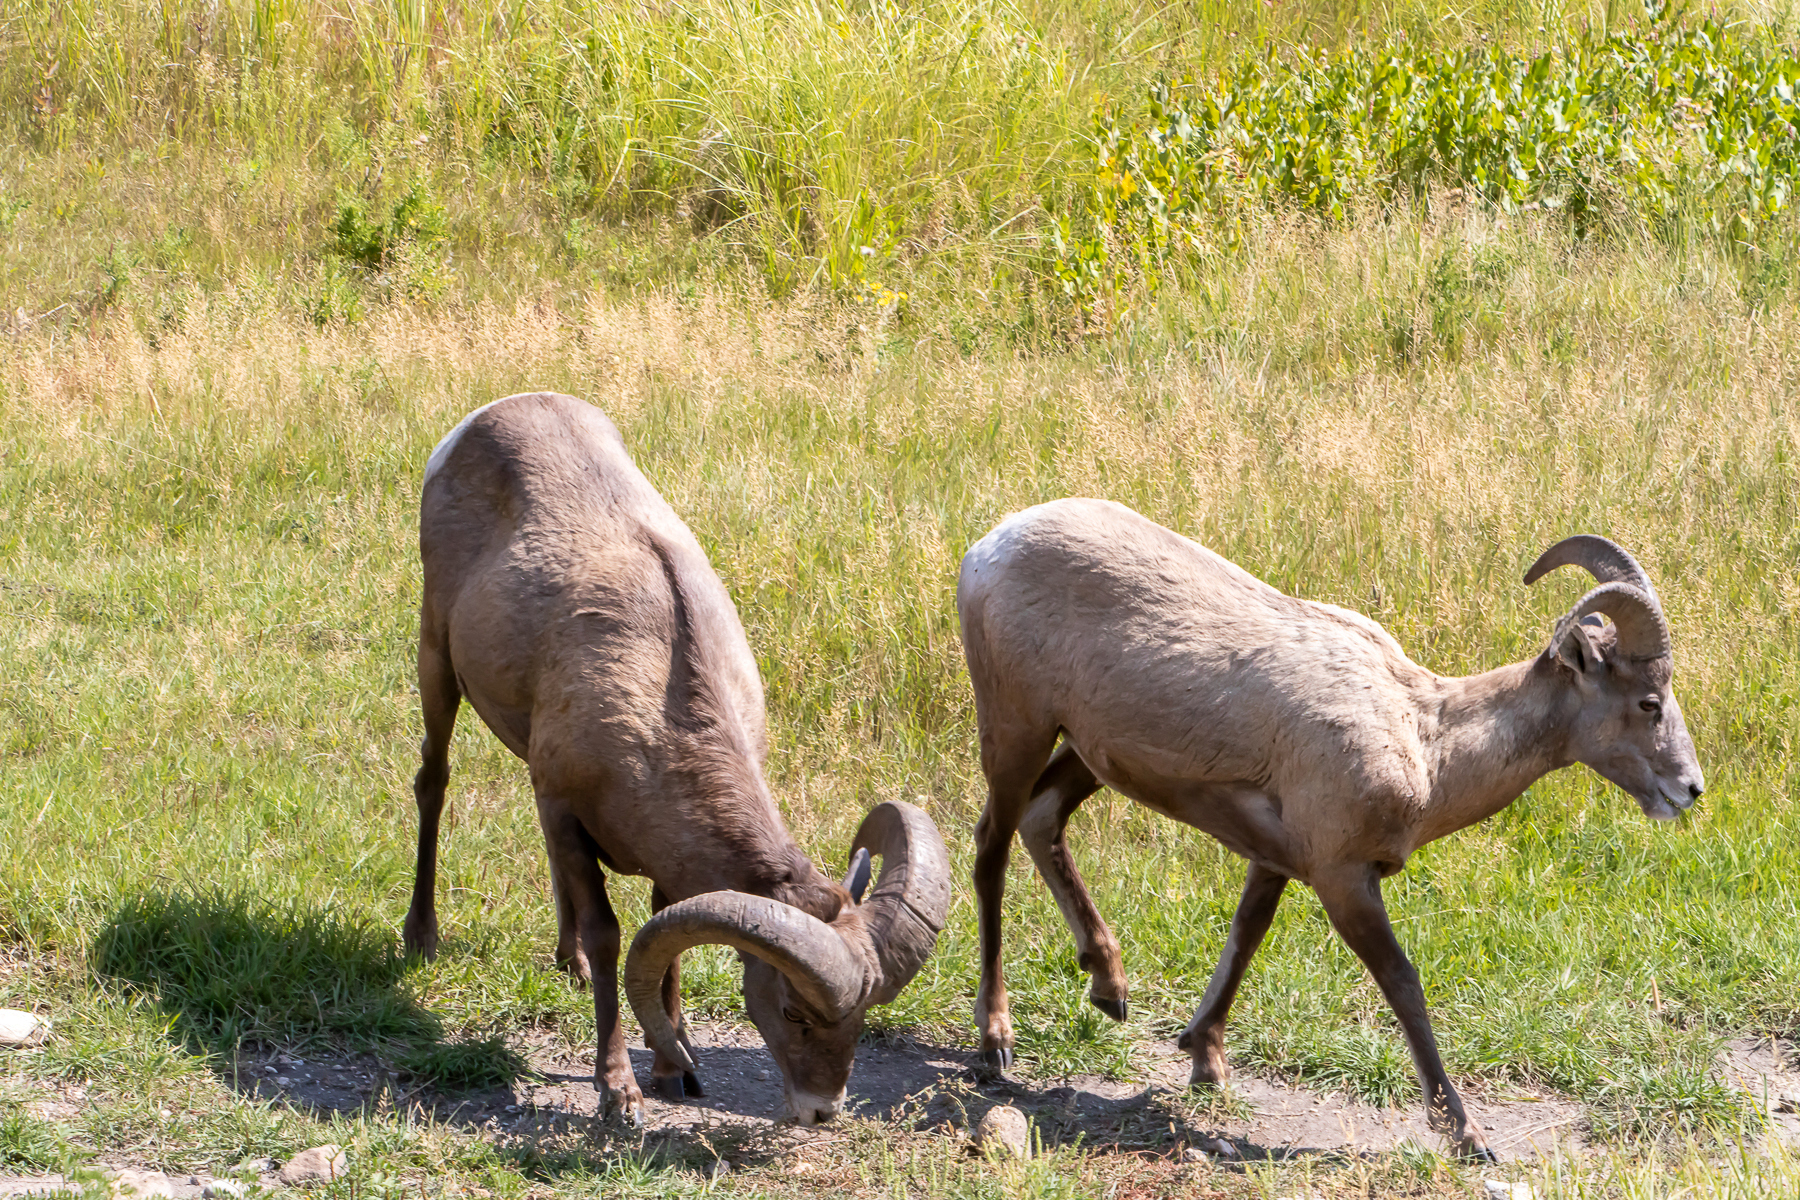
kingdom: Animalia
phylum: Chordata
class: Mammalia
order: Artiodactyla
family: Bovidae
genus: Ovis
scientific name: Ovis canadensis
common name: Bighorn sheep
